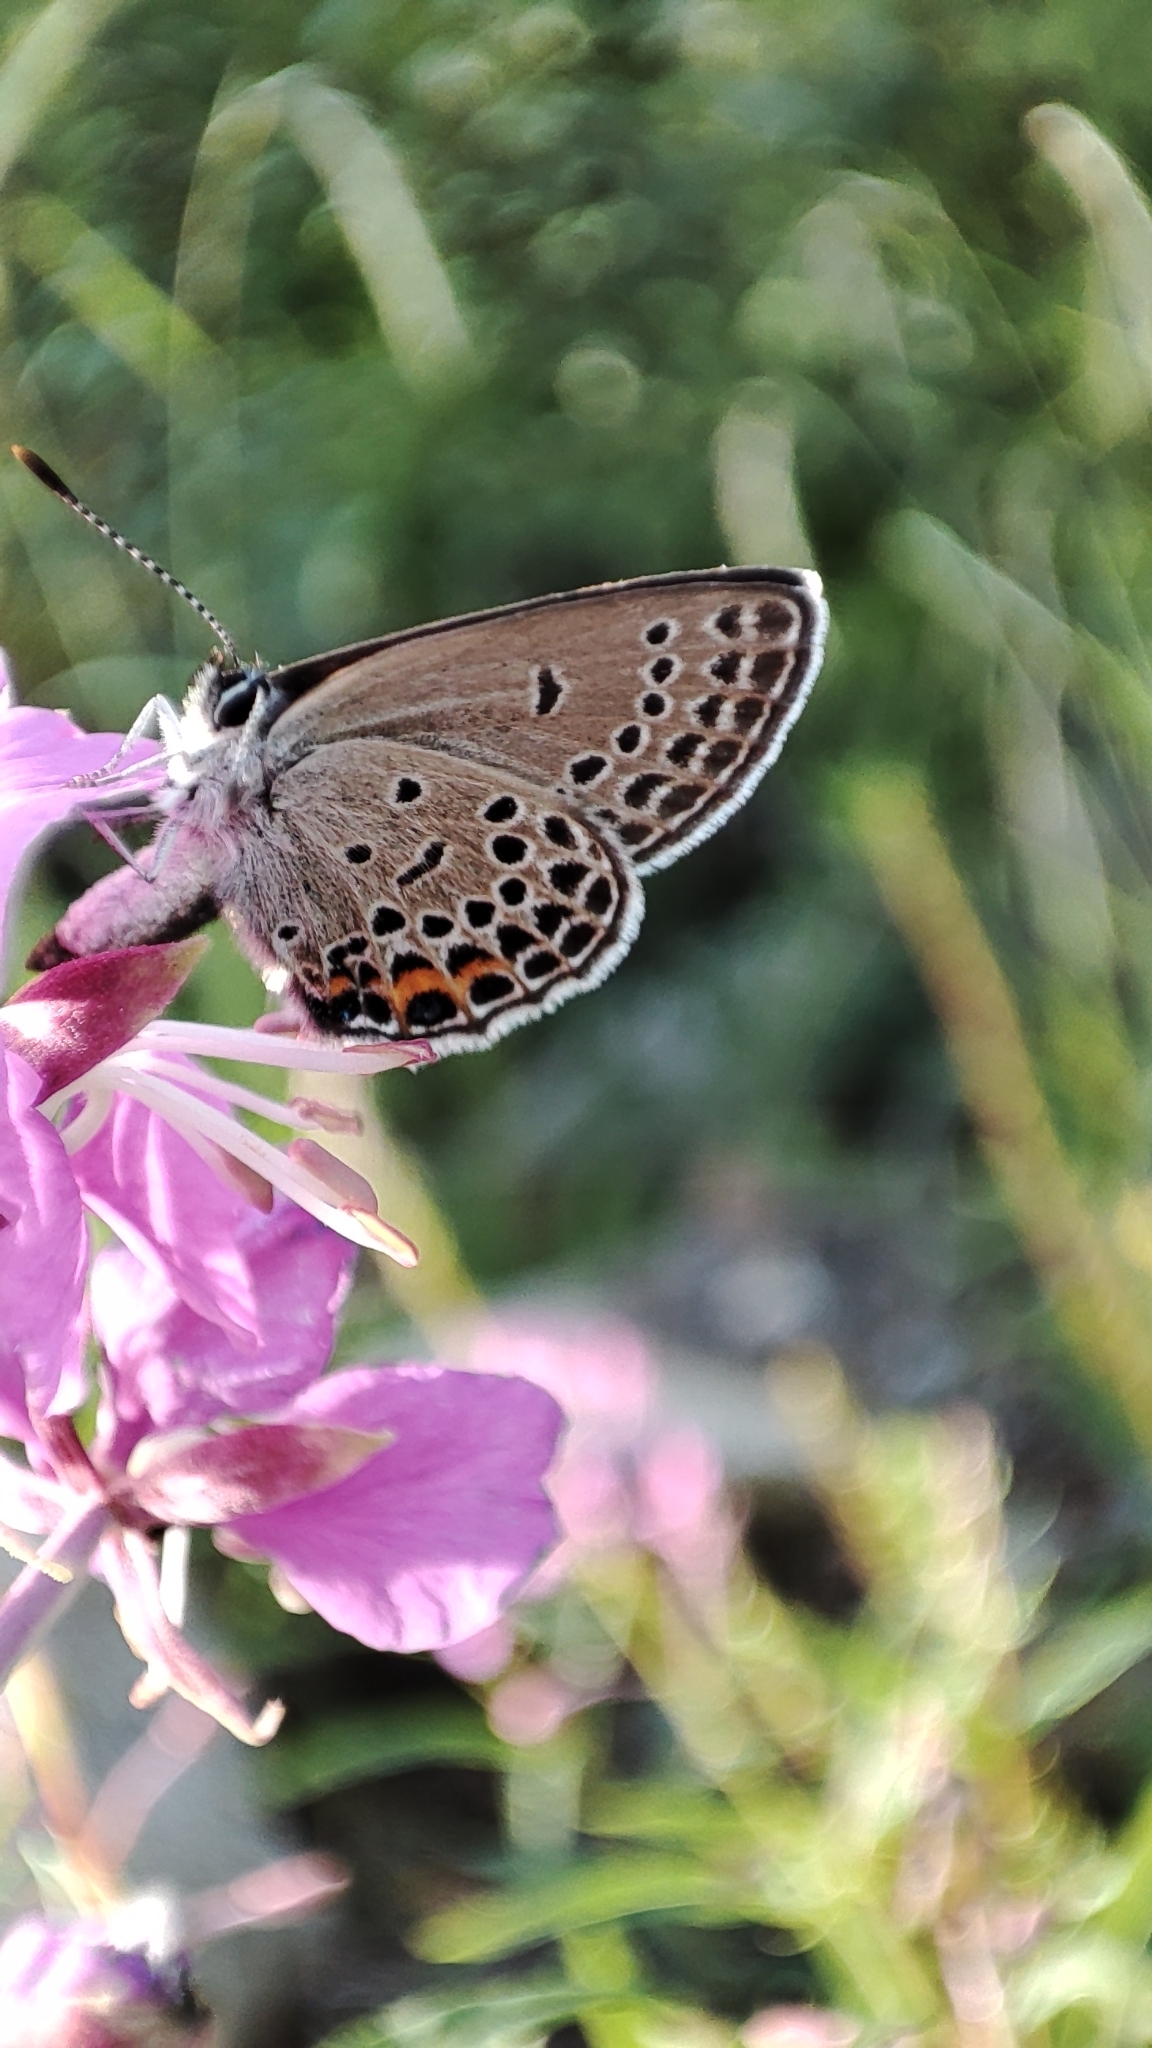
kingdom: Animalia
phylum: Arthropoda
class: Insecta
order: Lepidoptera
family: Lycaenidae
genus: Vacciniina
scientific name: Vacciniina optilete
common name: Cranberry blue
